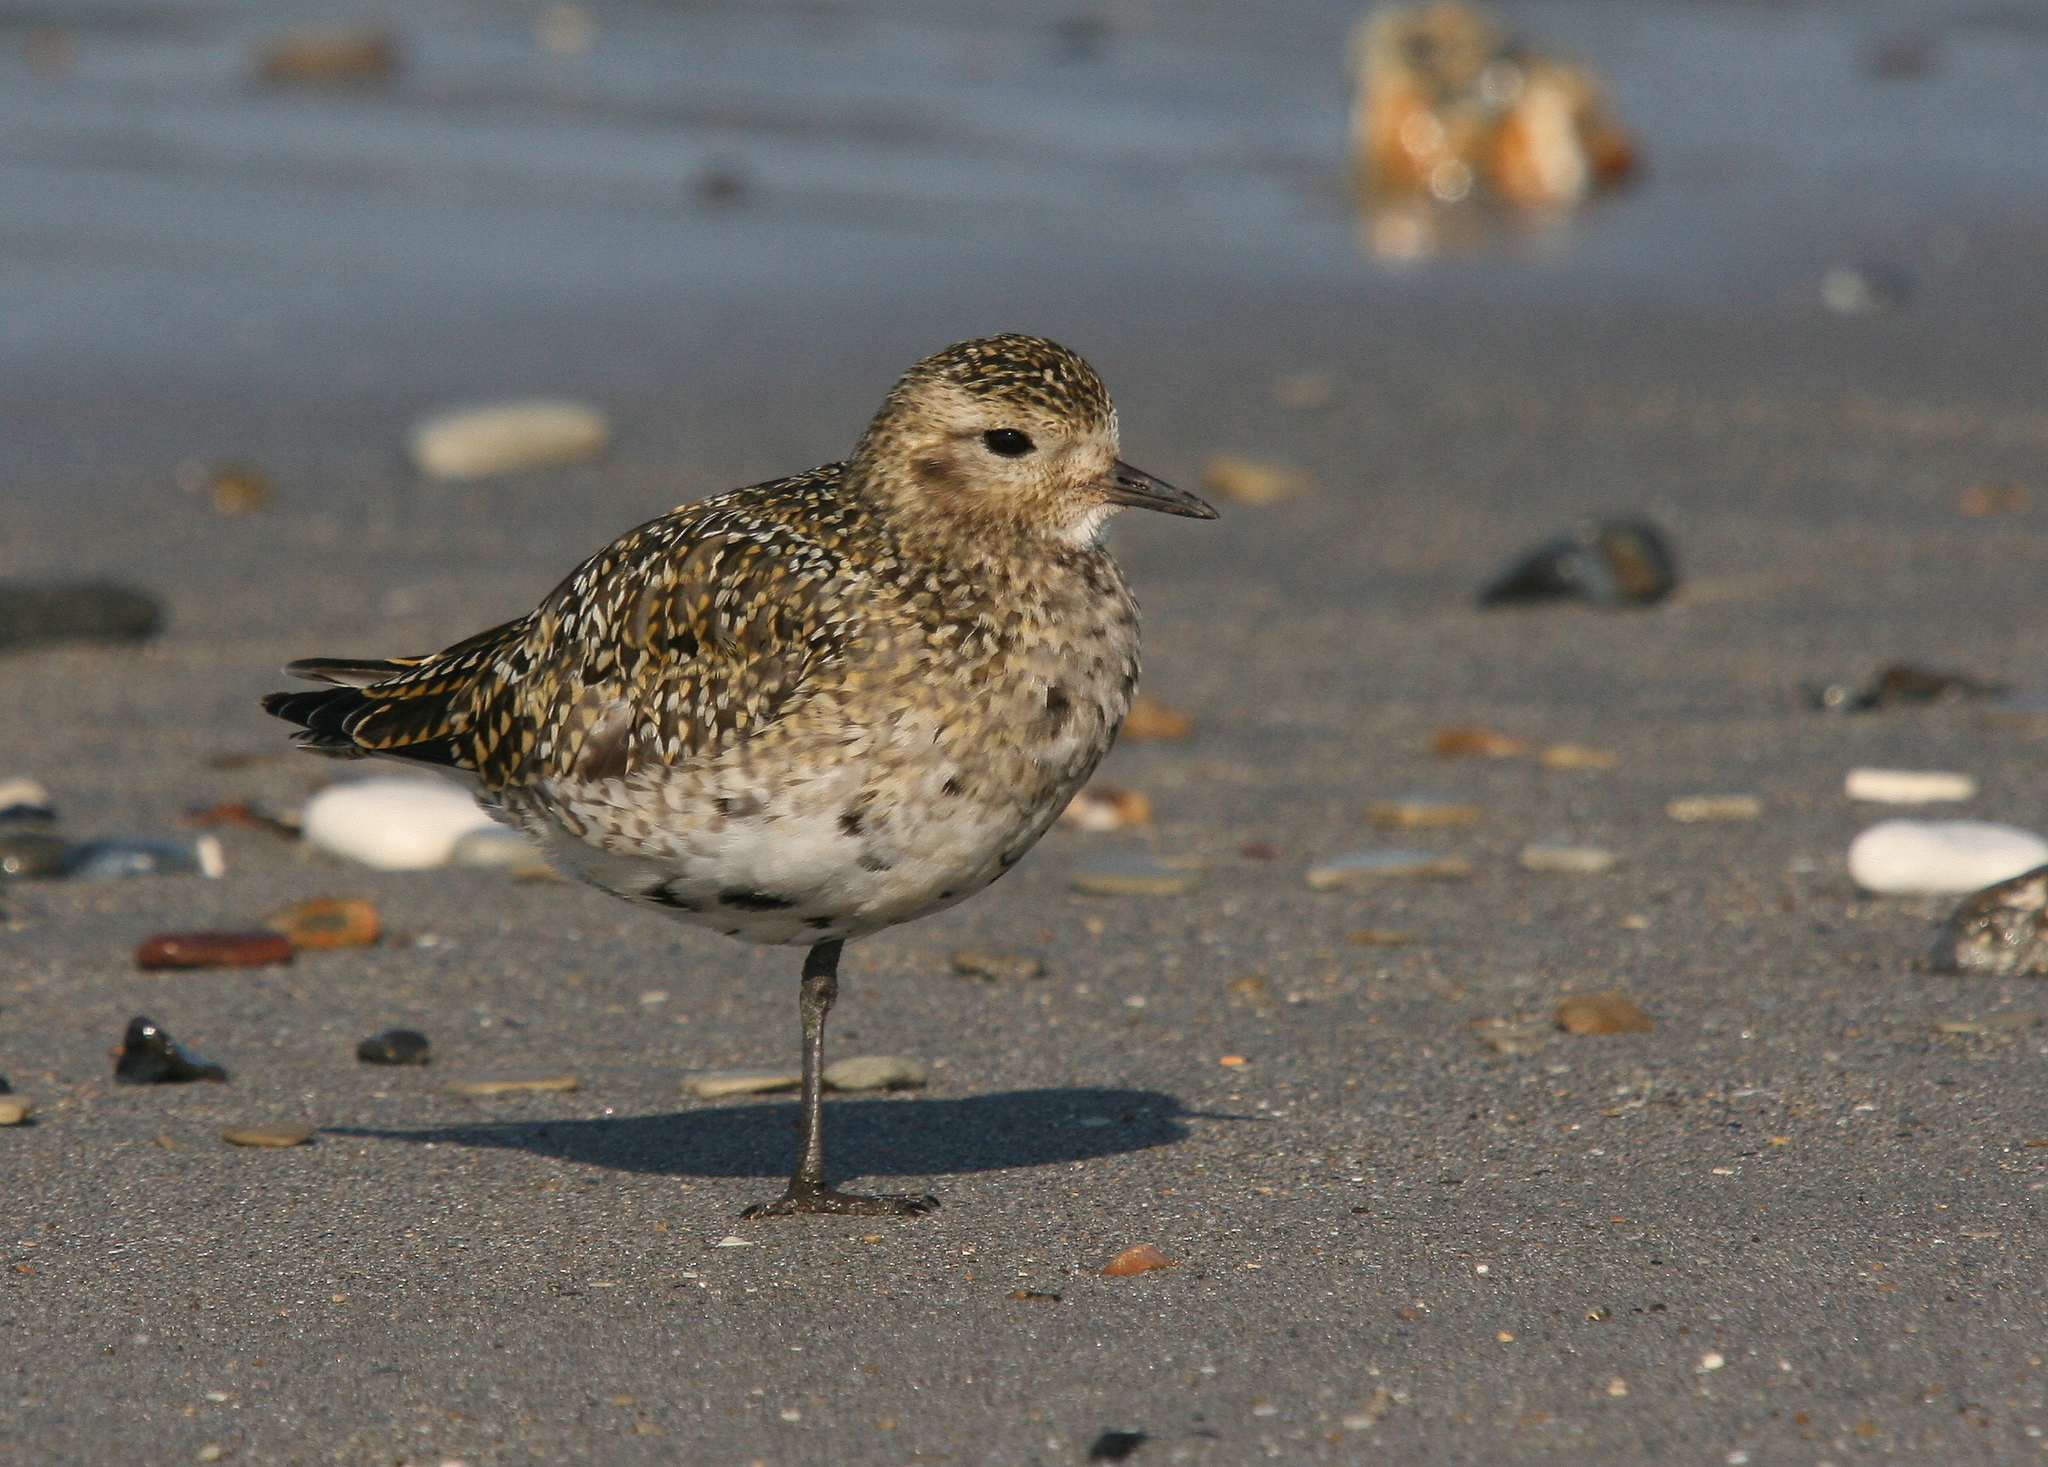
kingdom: Animalia
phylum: Chordata
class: Aves
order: Charadriiformes
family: Charadriidae
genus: Pluvialis
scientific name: Pluvialis apricaria
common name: European golden plover
